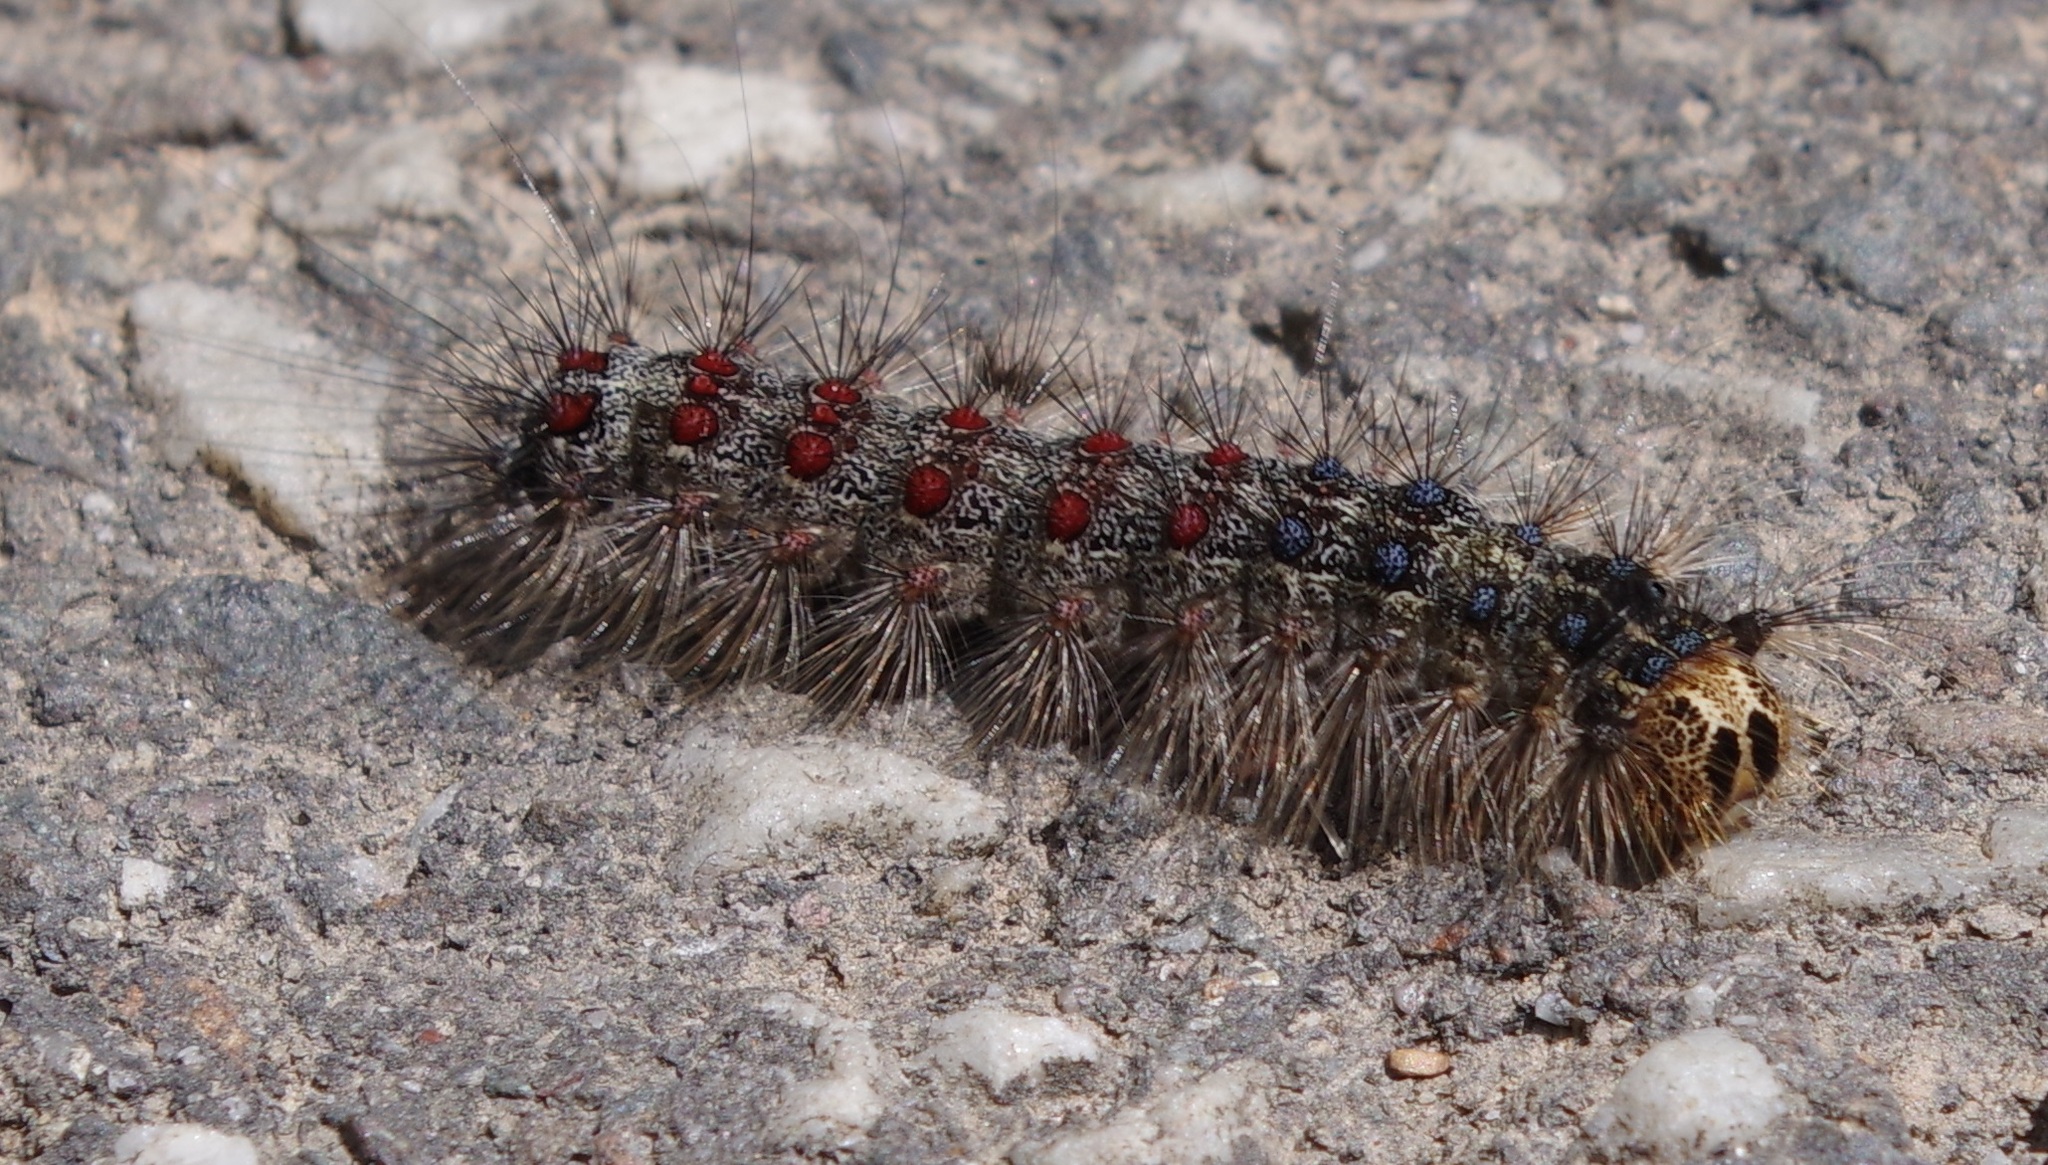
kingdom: Animalia
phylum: Arthropoda
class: Insecta
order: Lepidoptera
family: Erebidae
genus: Lymantria
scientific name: Lymantria dispar
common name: Gypsy moth
